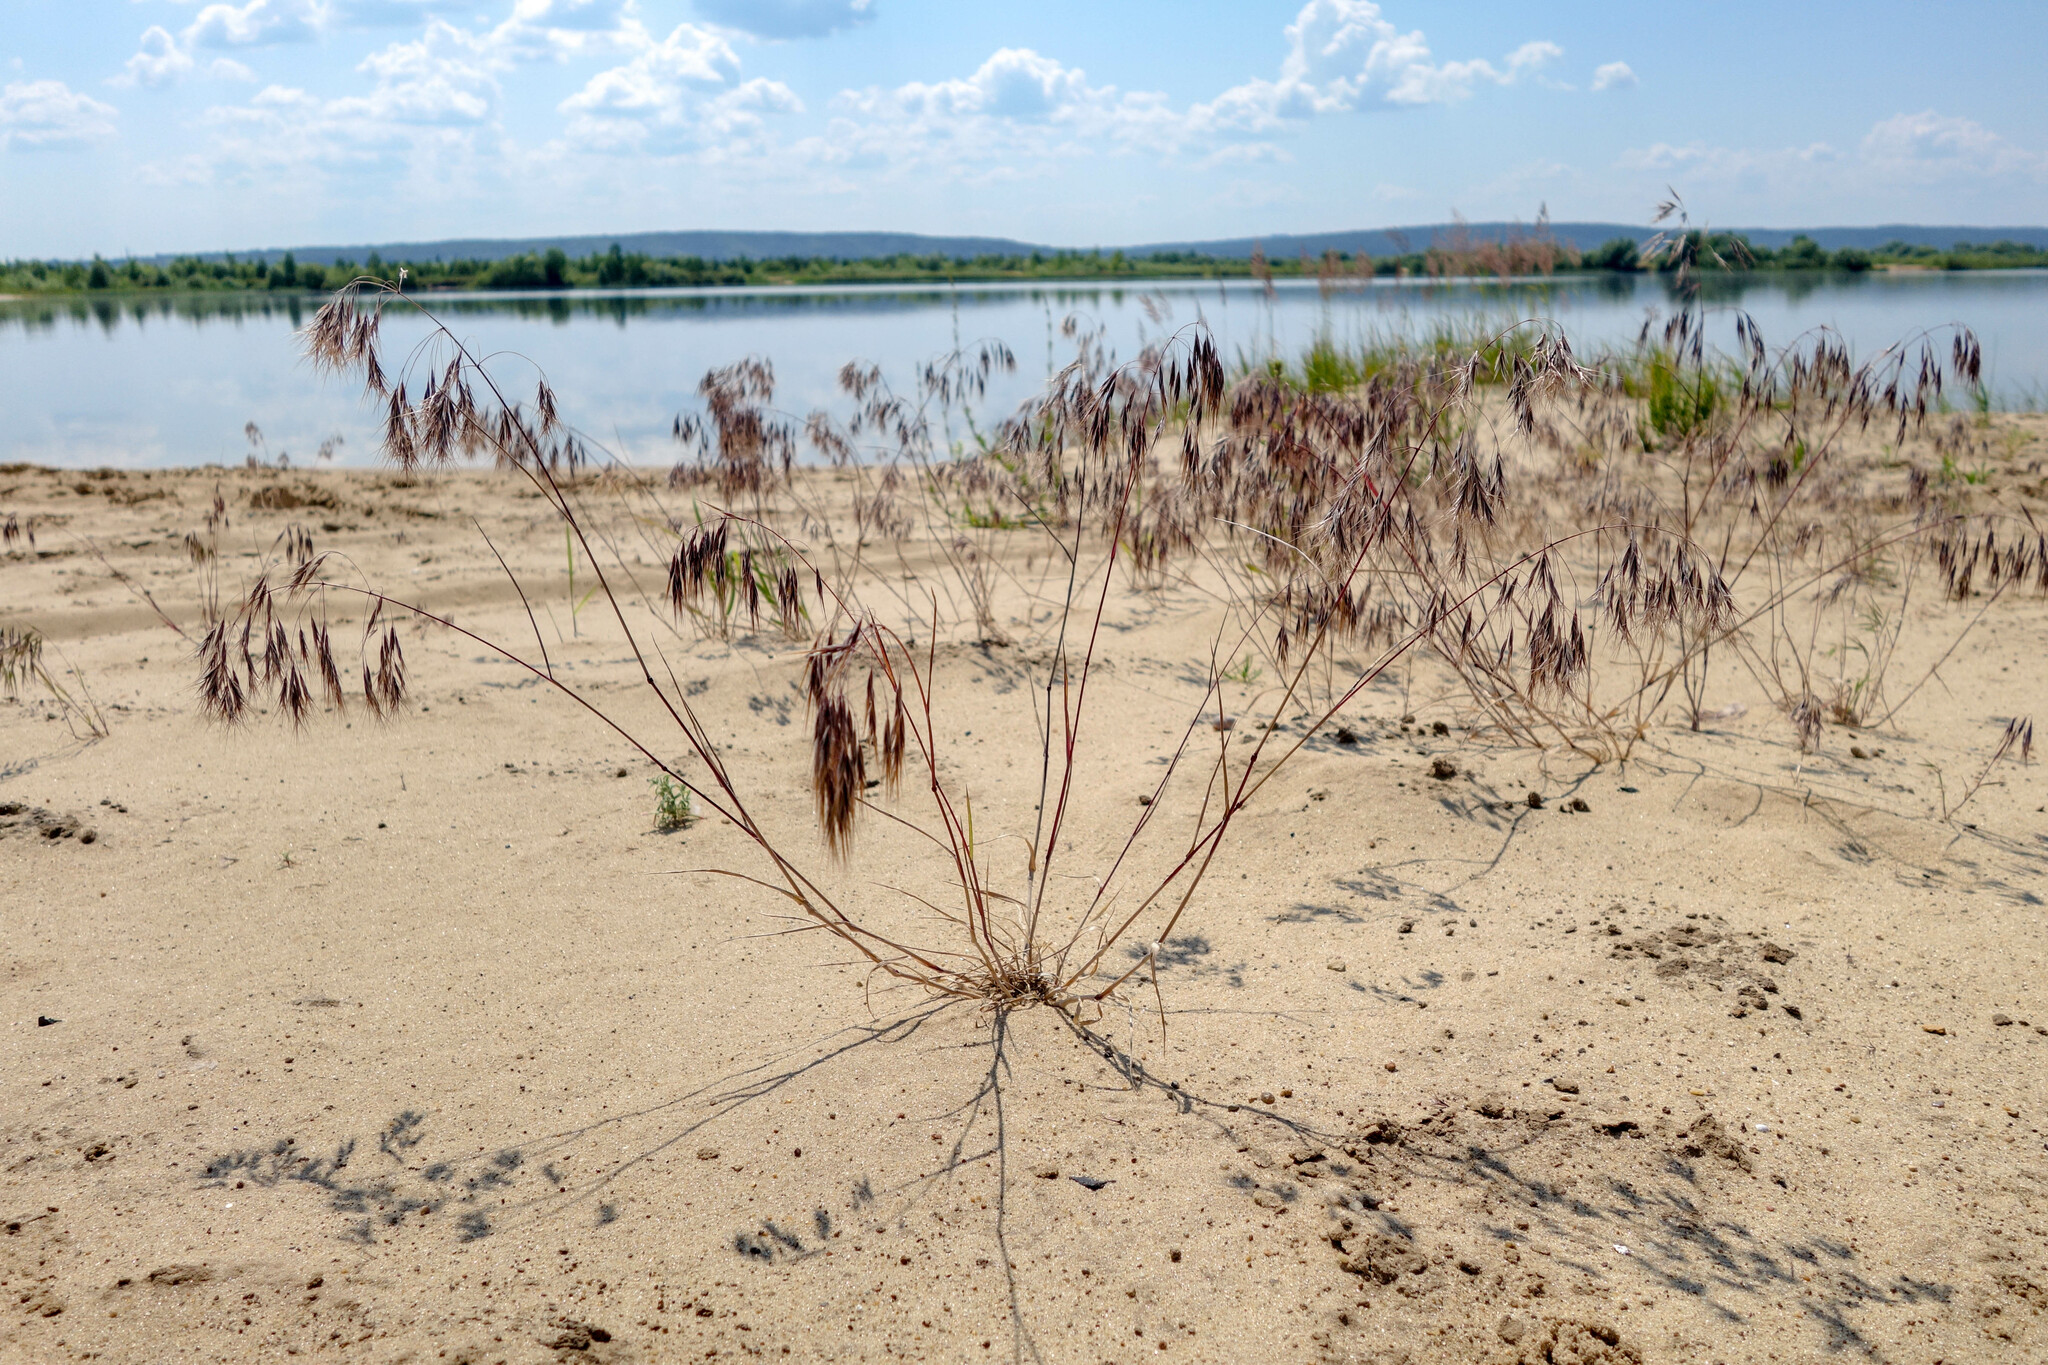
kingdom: Plantae
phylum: Tracheophyta
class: Liliopsida
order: Poales
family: Poaceae
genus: Bromus
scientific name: Bromus tectorum
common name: Cheatgrass
